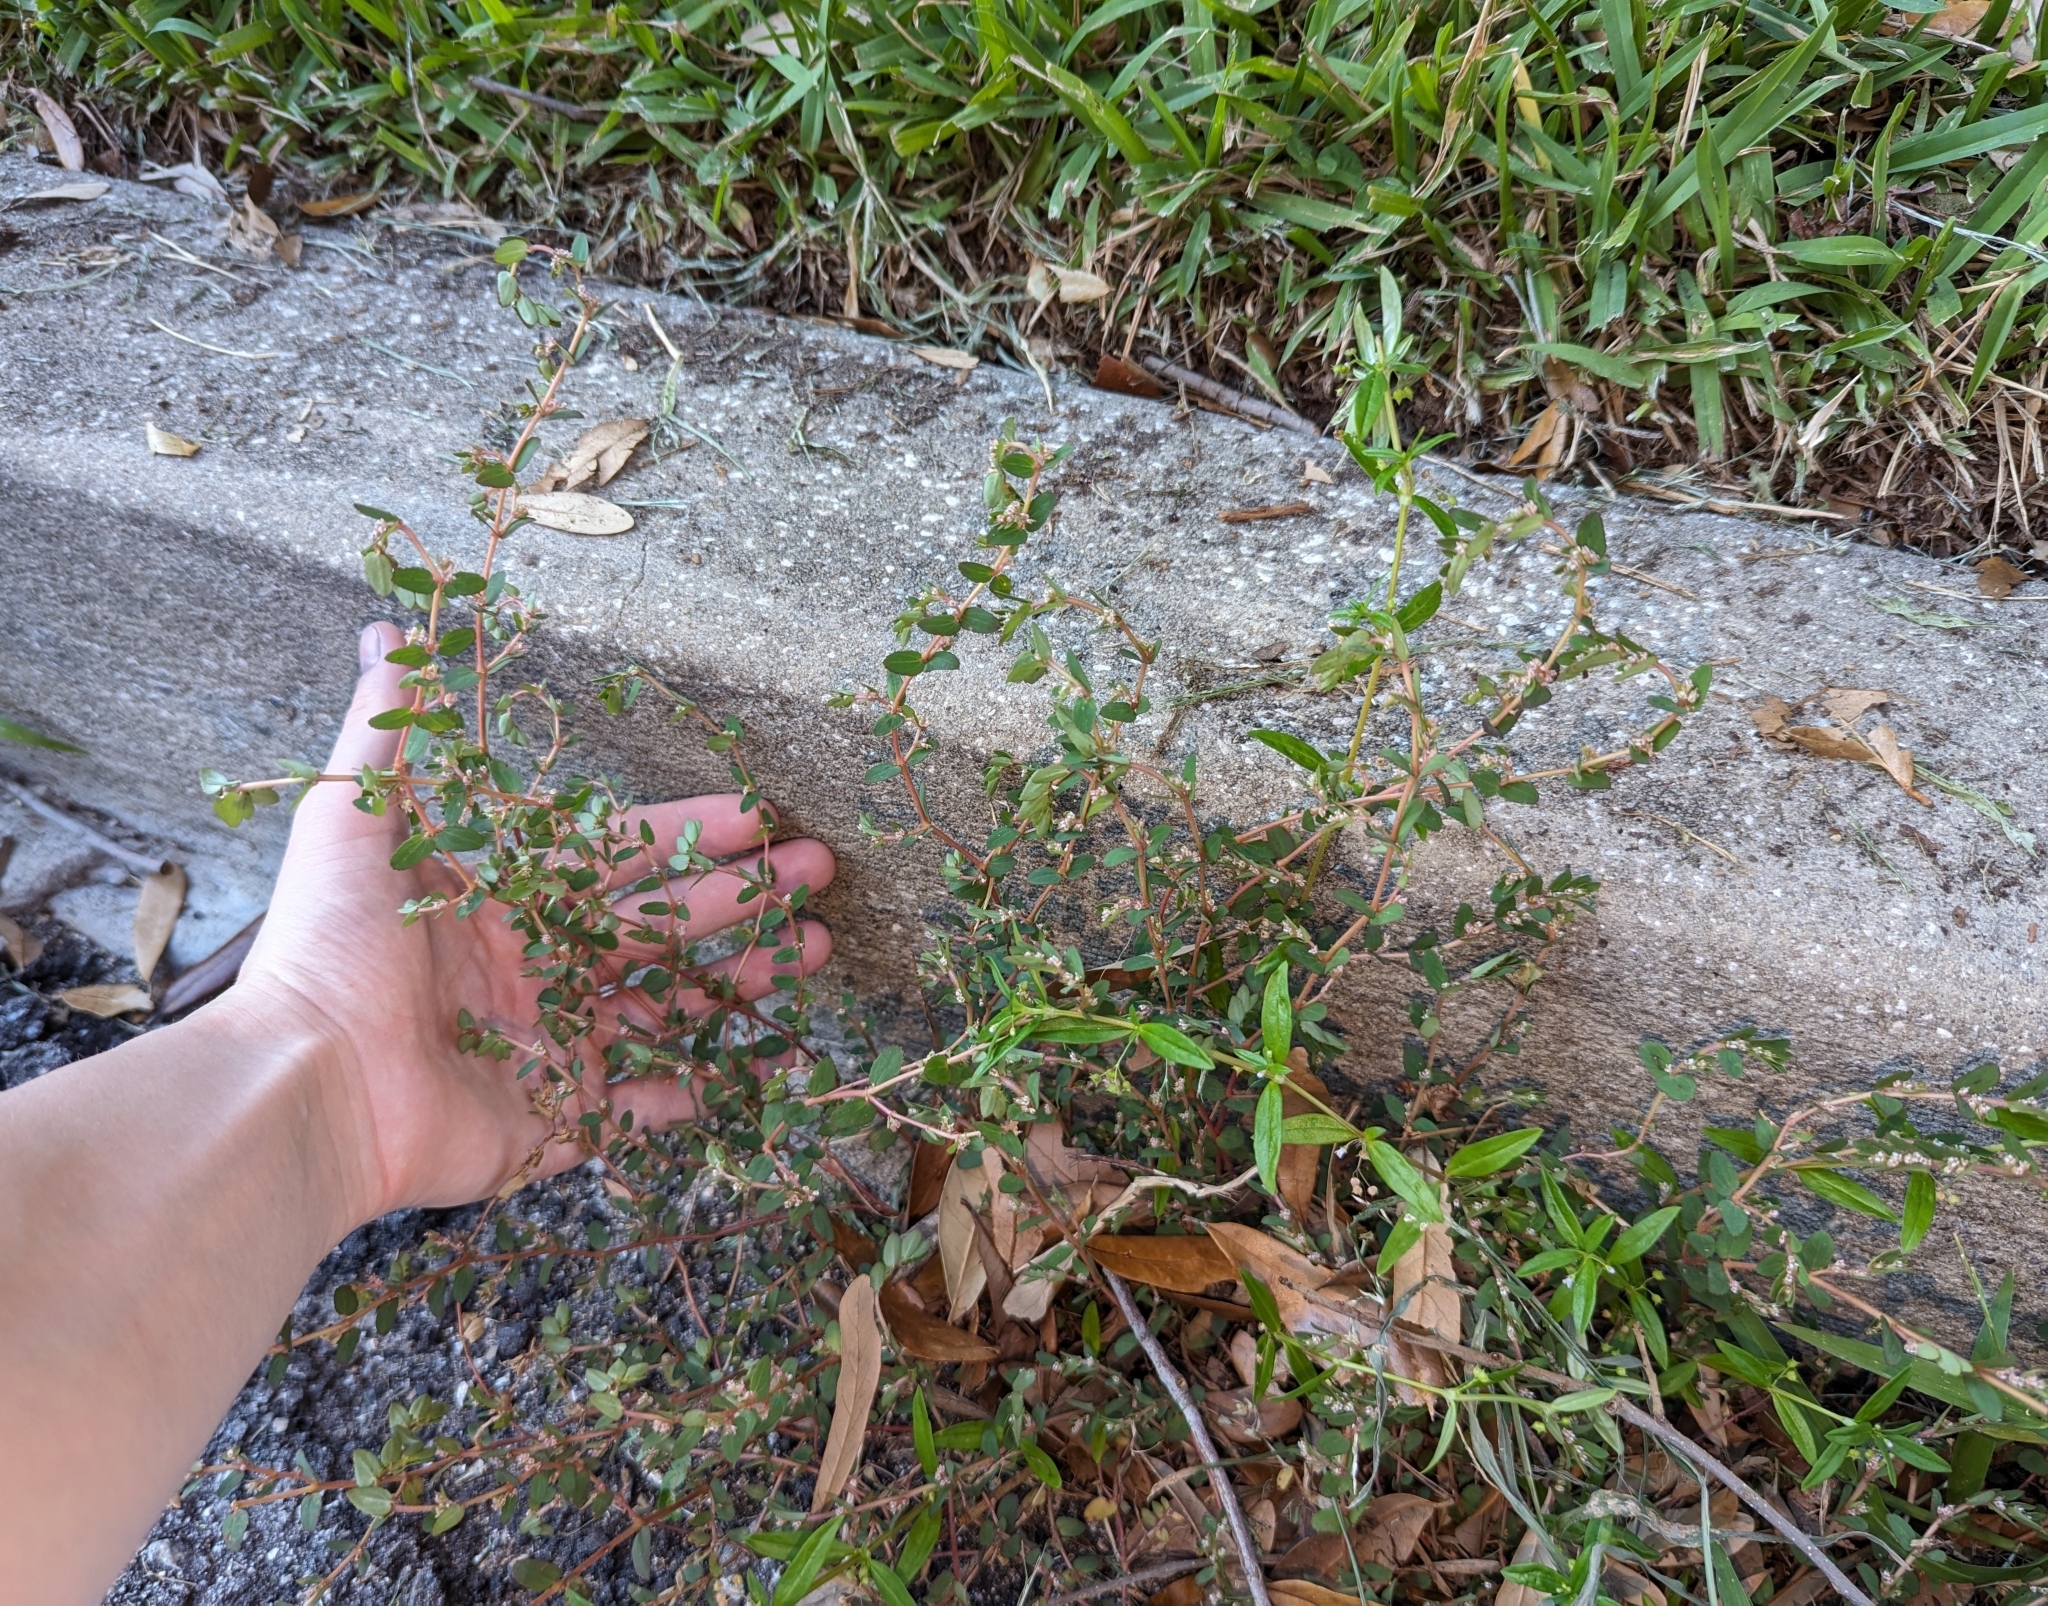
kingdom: Plantae
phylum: Tracheophyta
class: Magnoliopsida
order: Malpighiales
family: Euphorbiaceae
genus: Euphorbia
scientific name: Euphorbia thymifolia
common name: Gulf sandmat
